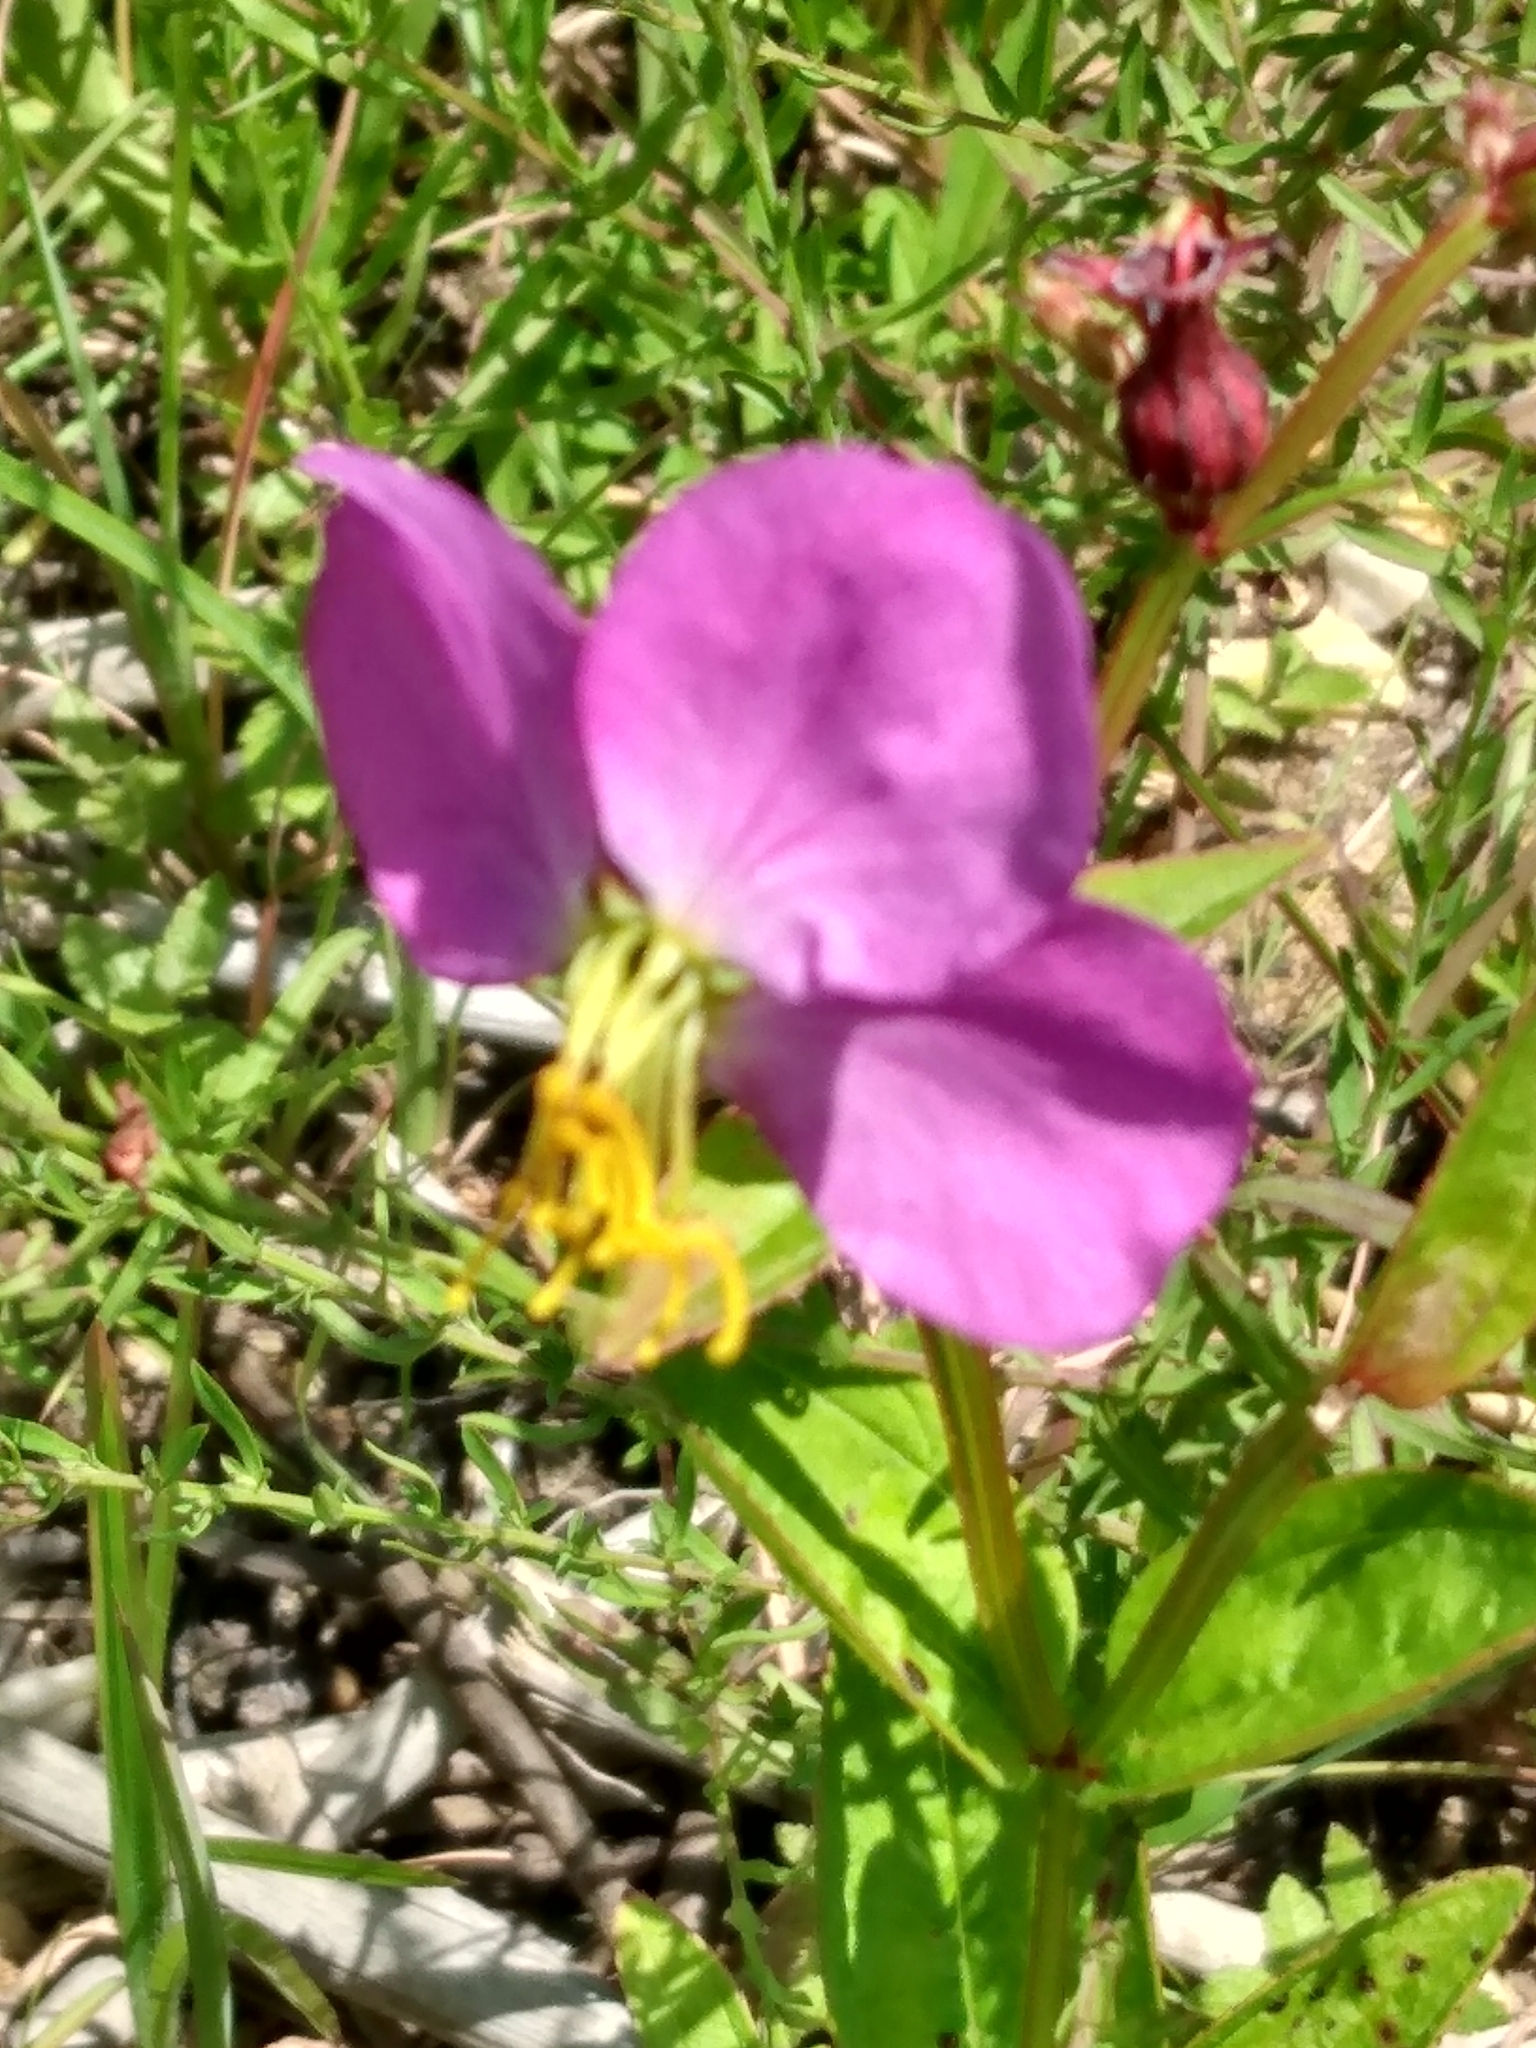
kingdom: Plantae
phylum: Tracheophyta
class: Magnoliopsida
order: Myrtales
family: Melastomataceae
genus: Rhexia
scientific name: Rhexia virginica
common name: Common meadow beauty
